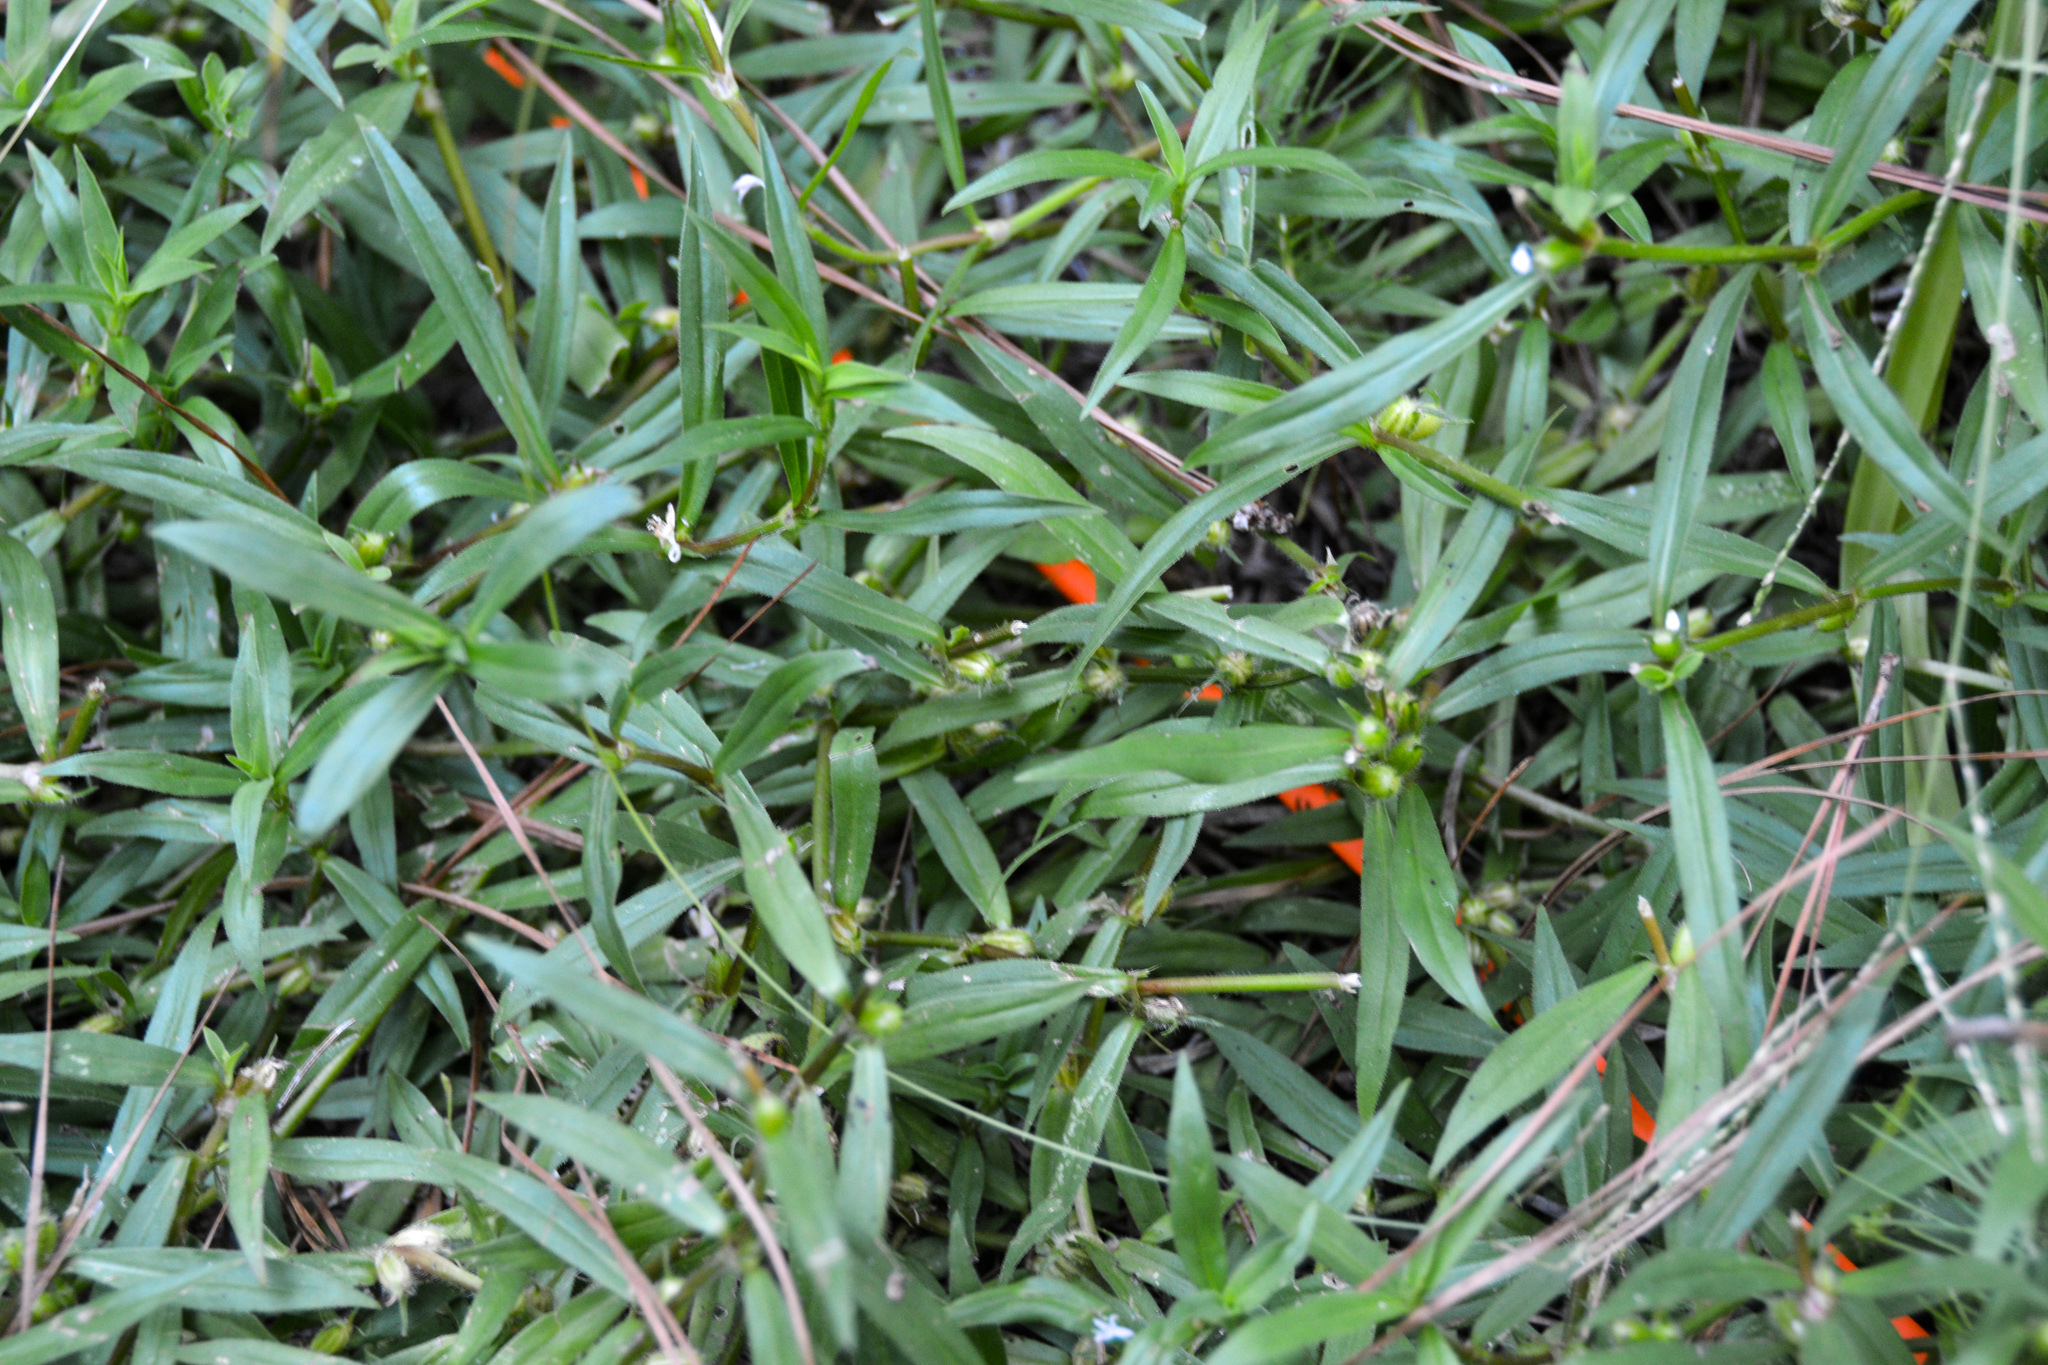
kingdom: Plantae
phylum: Tracheophyta
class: Magnoliopsida
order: Gentianales
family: Rubiaceae
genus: Diodia
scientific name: Diodia virginiana
